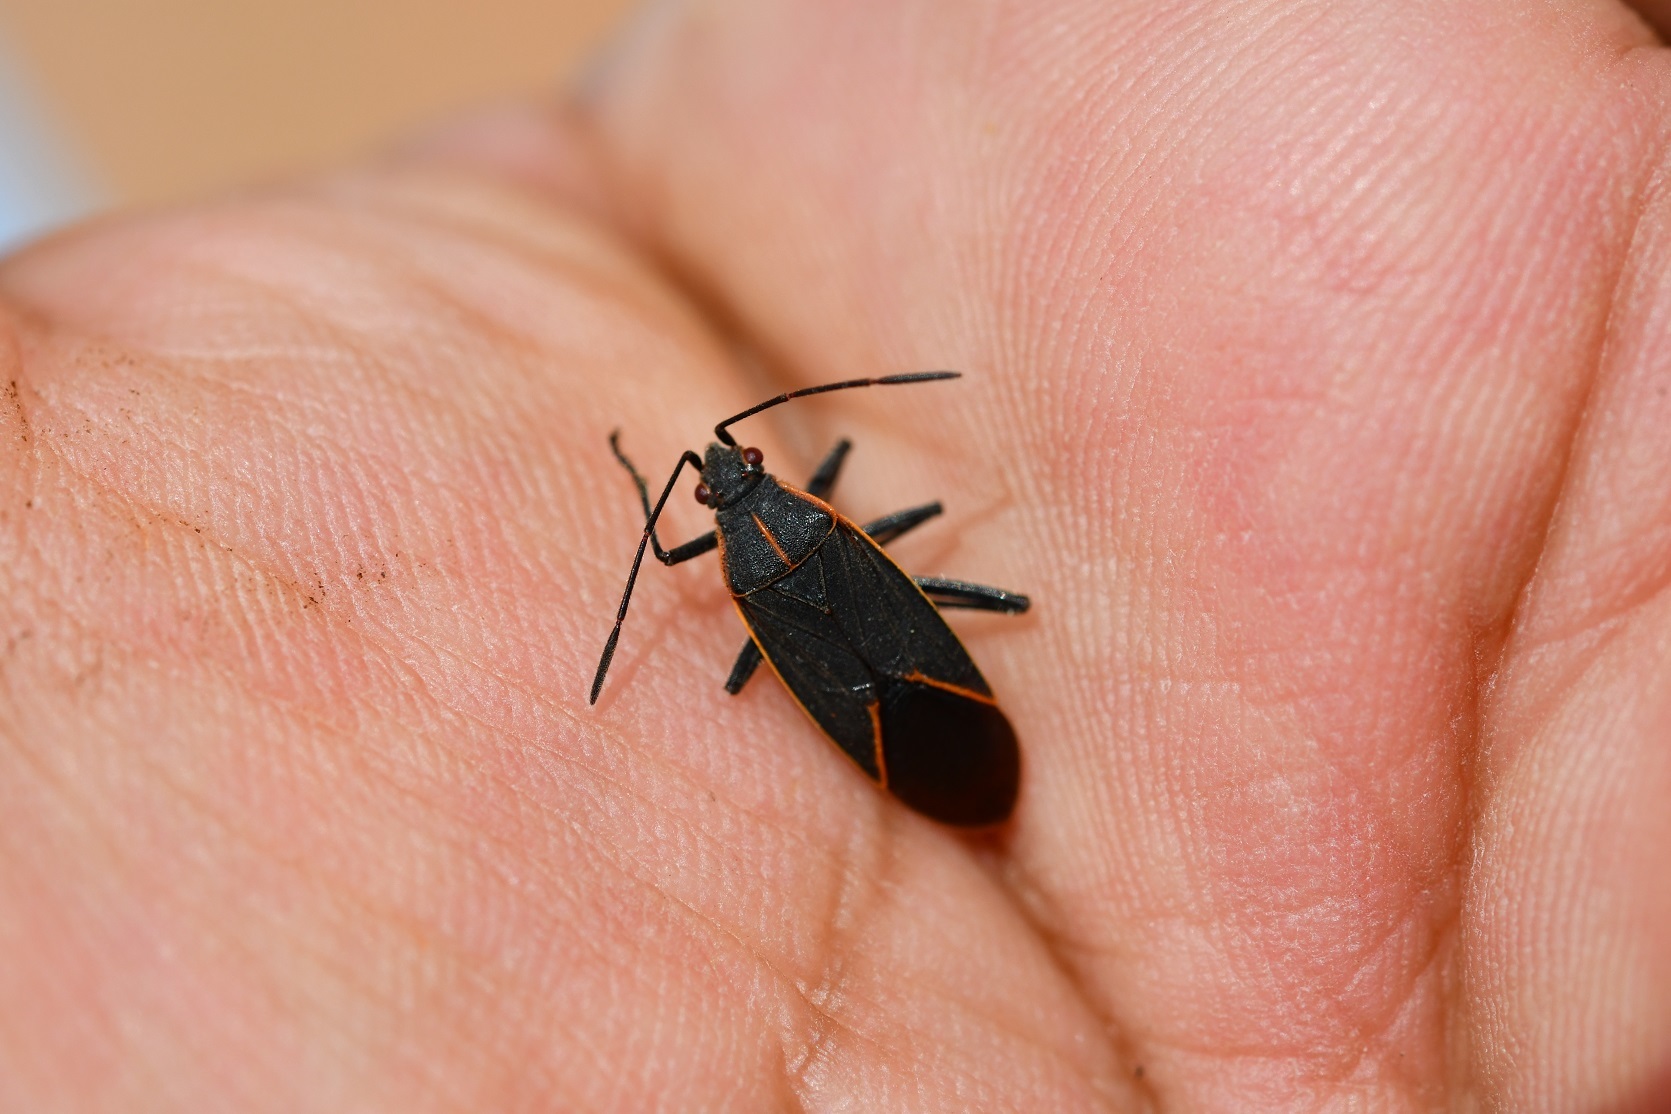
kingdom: Animalia
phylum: Arthropoda
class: Insecta
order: Hemiptera
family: Rhopalidae
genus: Boisea
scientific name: Boisea trivittata
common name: Boxelder bug
